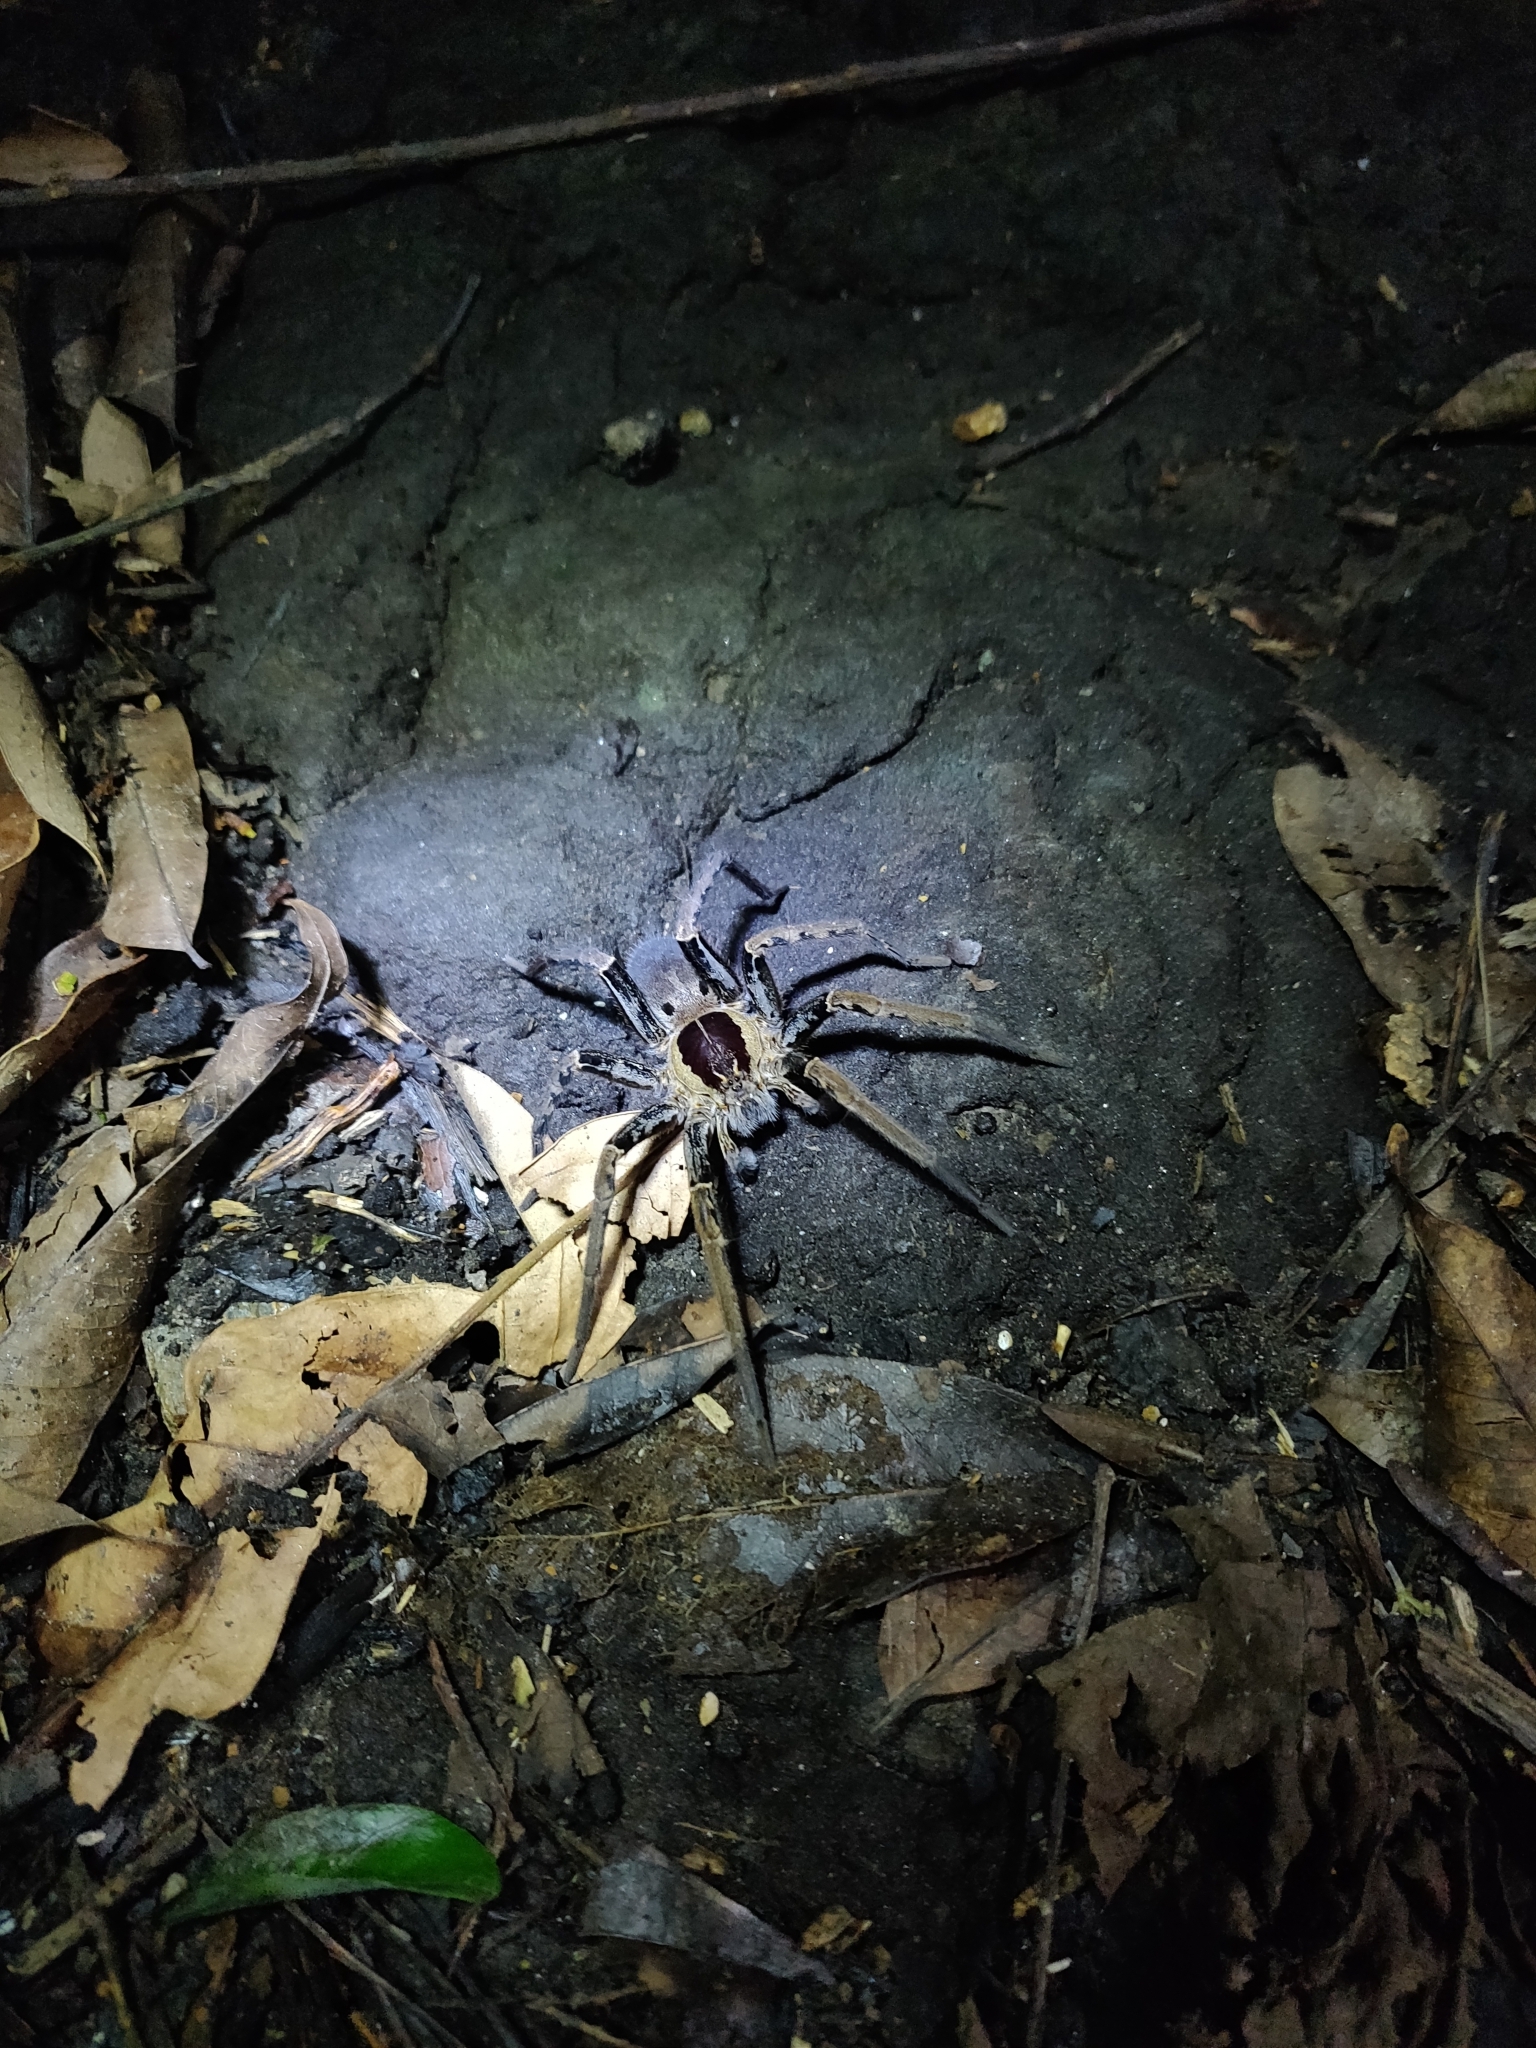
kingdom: Animalia
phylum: Arthropoda
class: Arachnida
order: Araneae
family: Ctenidae
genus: Ancylometes
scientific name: Ancylometes bogotensis
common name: Wandering spiders
